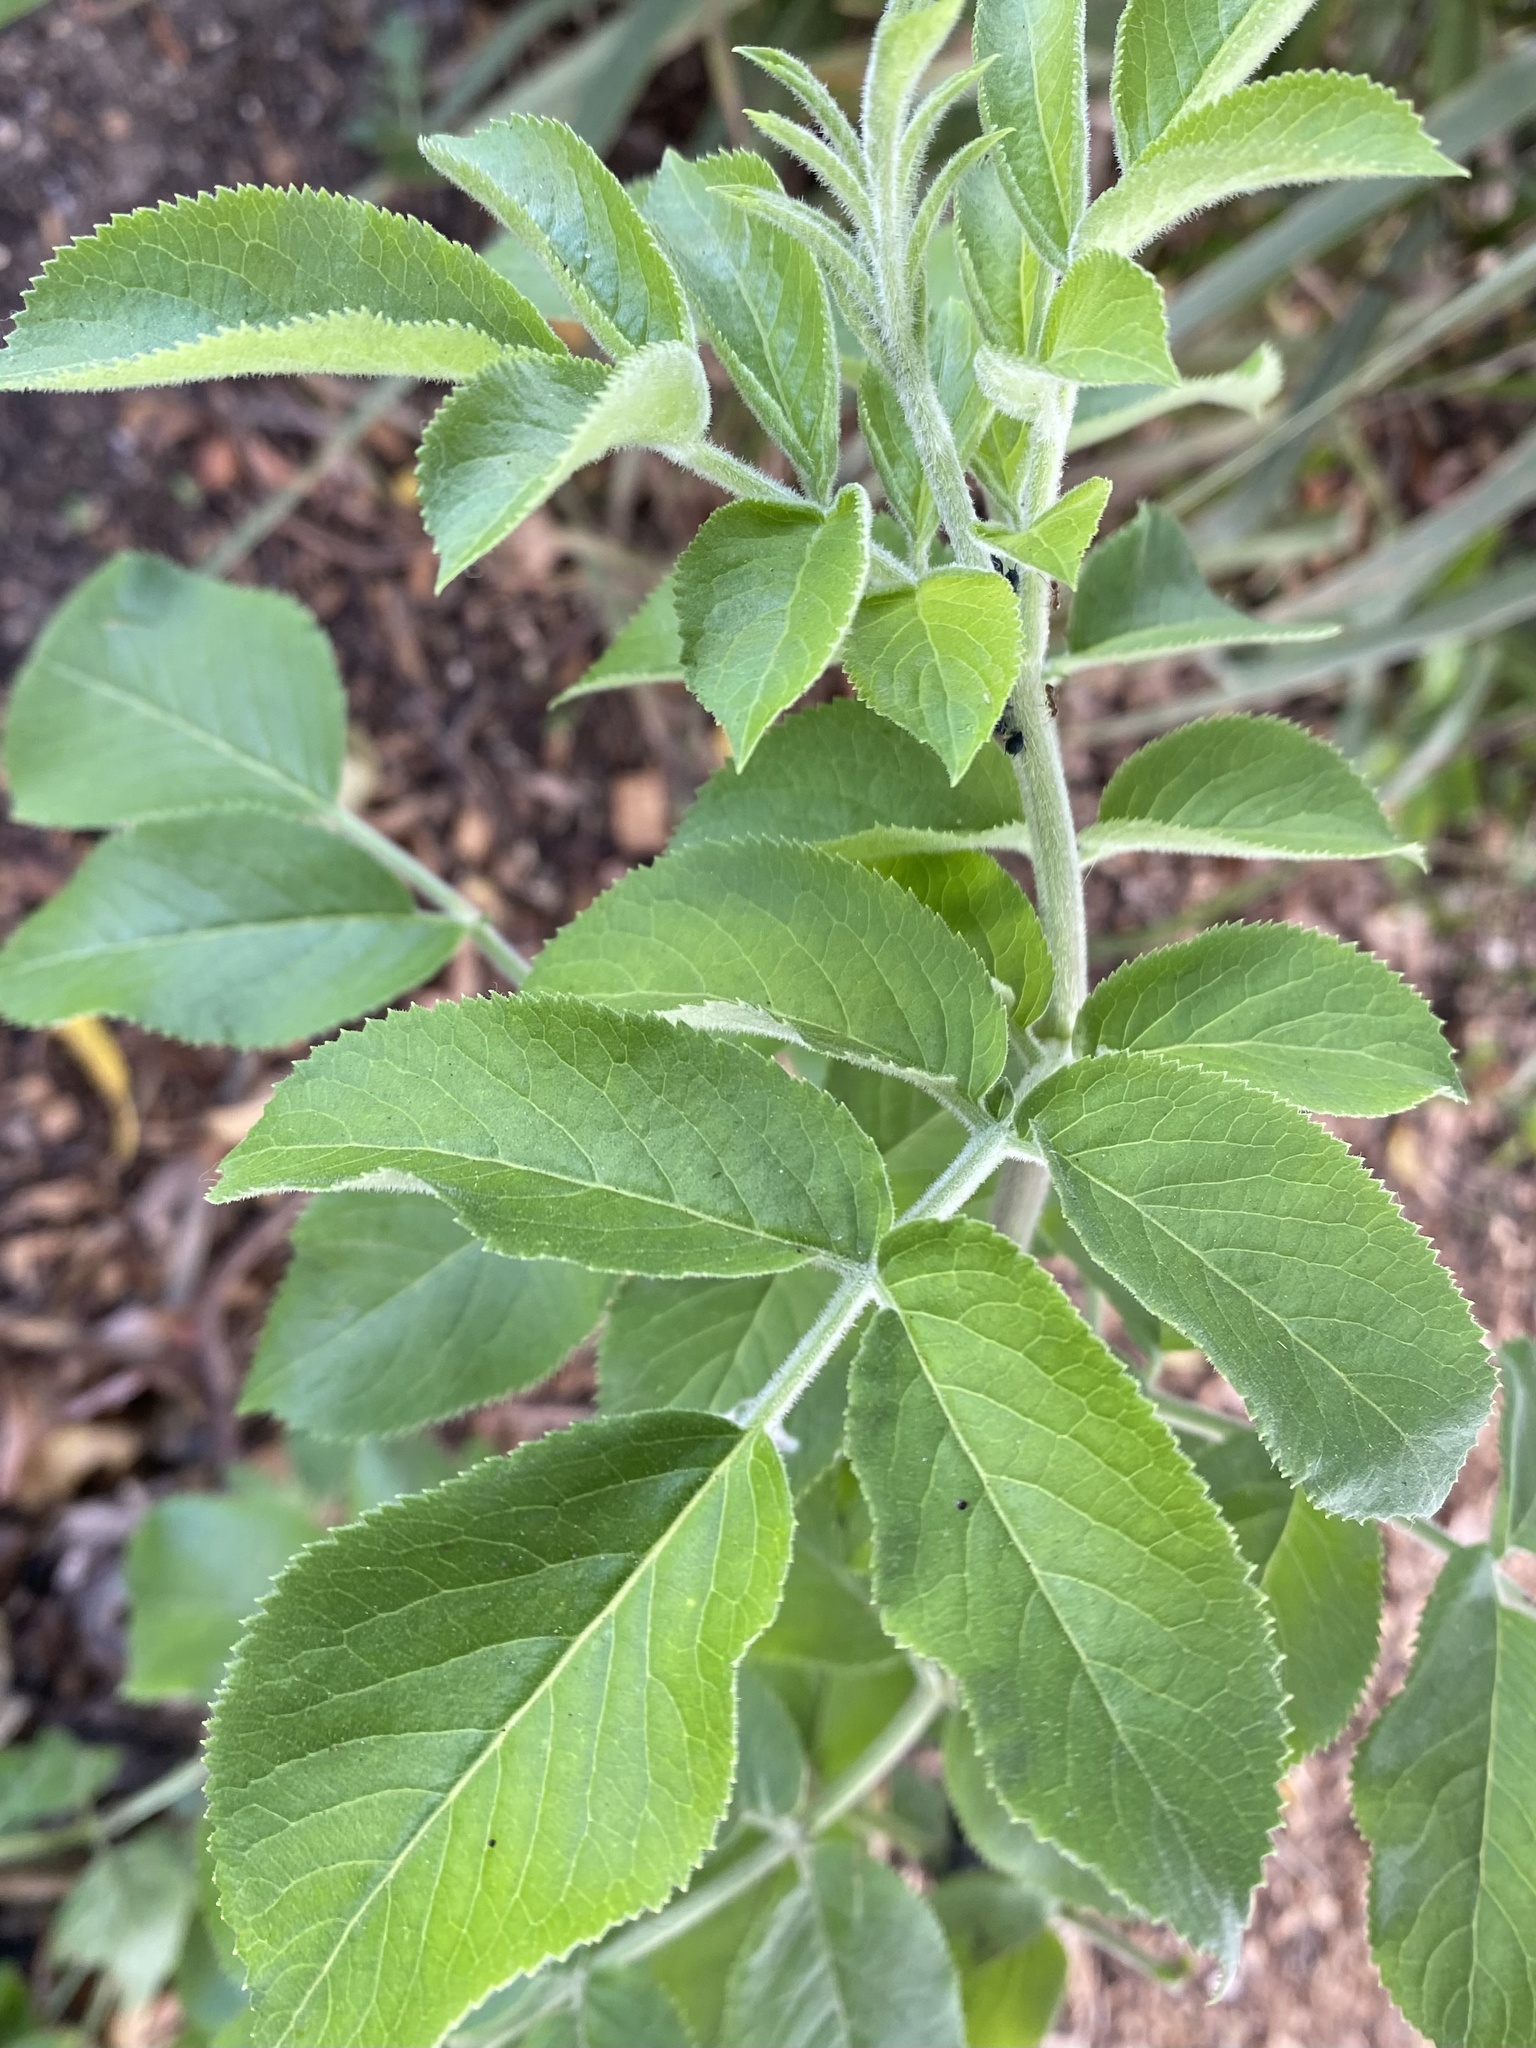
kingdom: Plantae
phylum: Tracheophyta
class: Magnoliopsida
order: Dipsacales
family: Viburnaceae
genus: Sambucus
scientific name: Sambucus cerulea
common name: Blue elder
